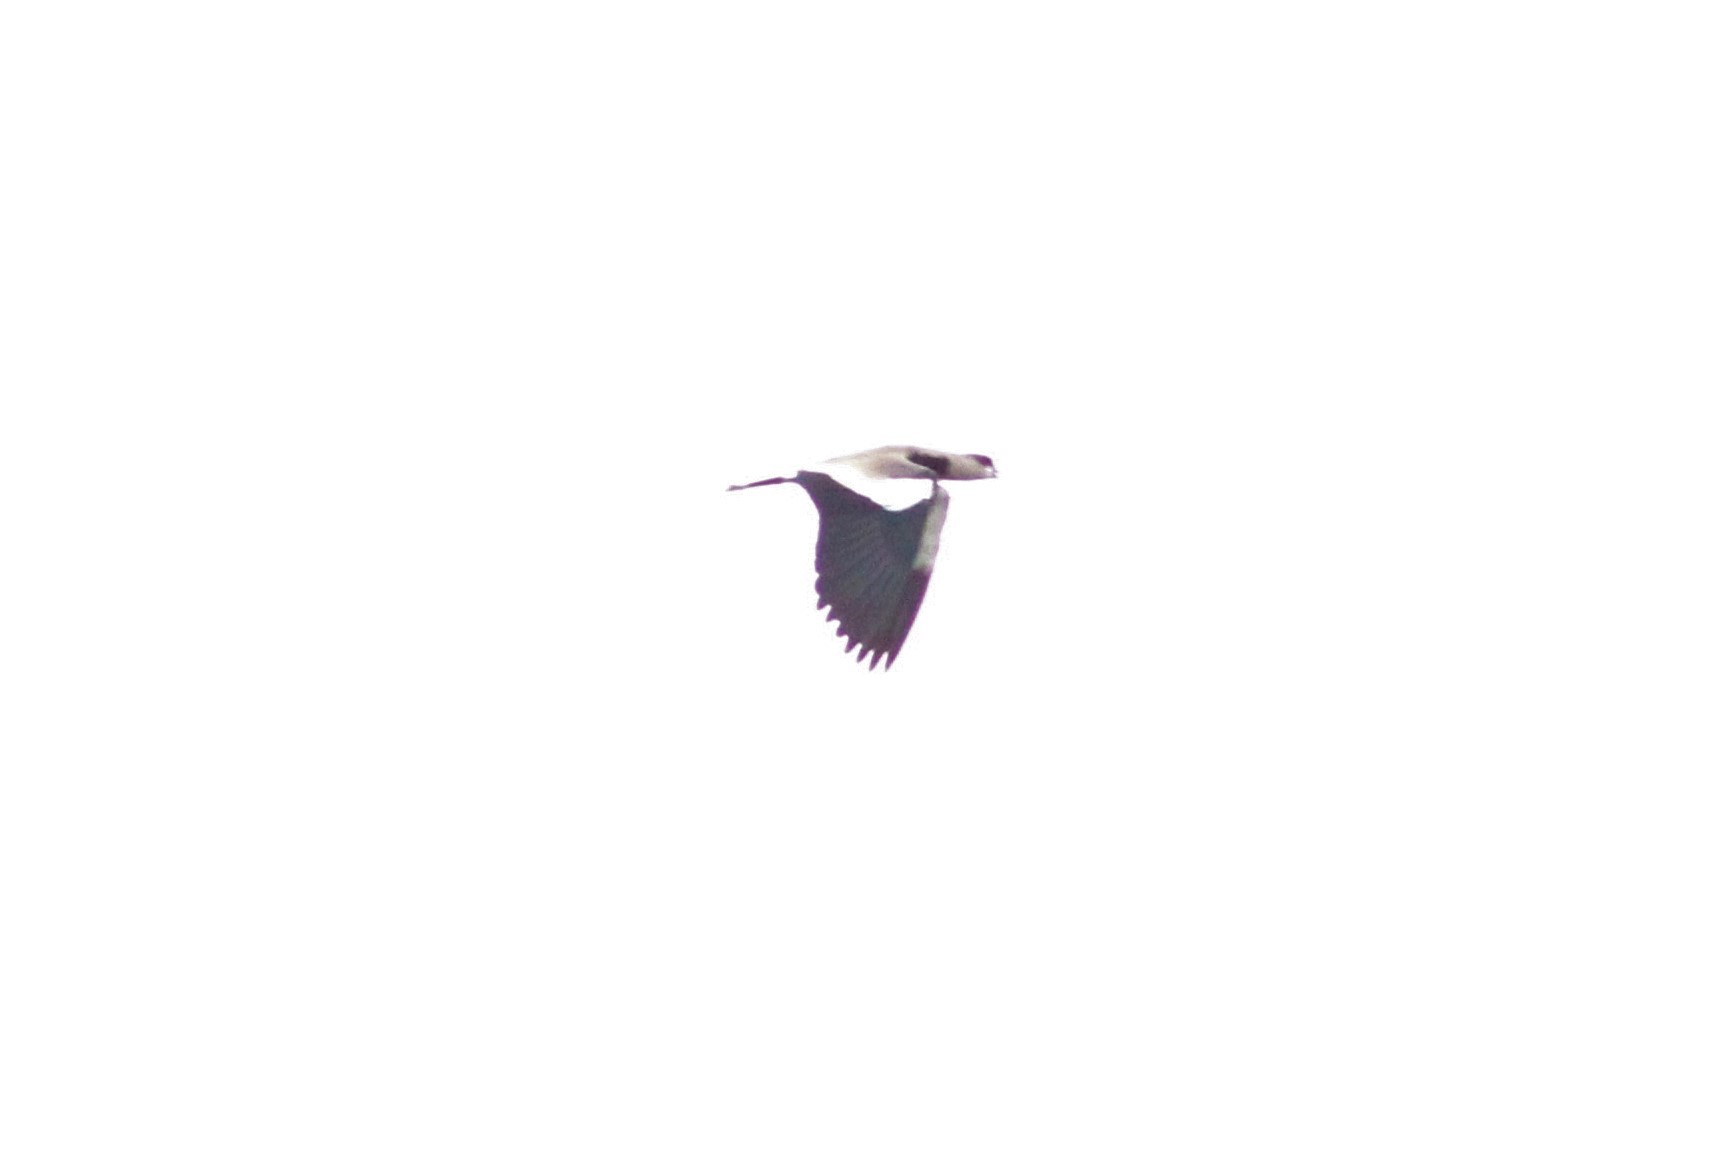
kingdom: Animalia
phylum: Chordata
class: Aves
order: Charadriiformes
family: Charadriidae
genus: Vanellus
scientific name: Vanellus chilensis
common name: Southern lapwing
